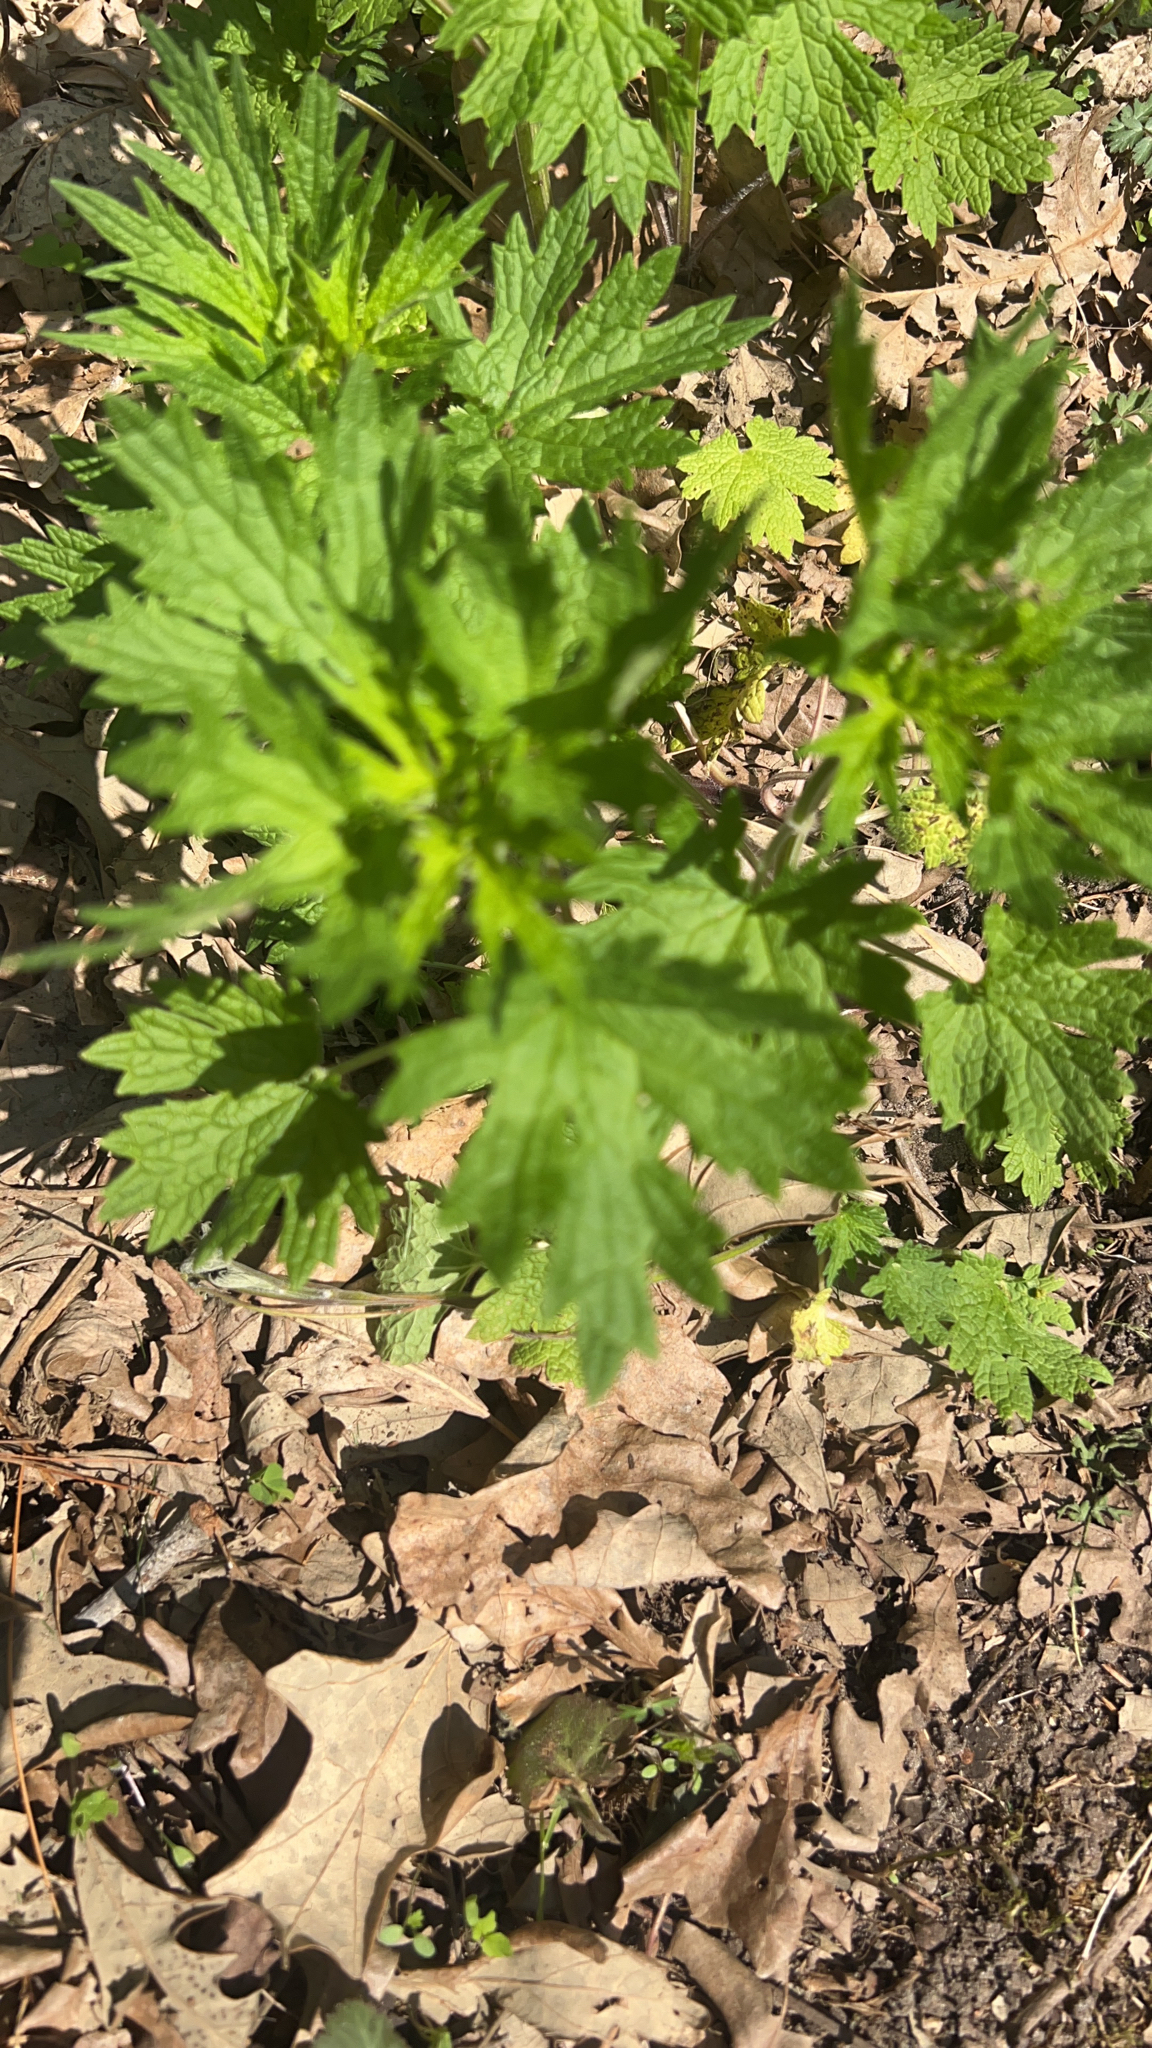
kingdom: Plantae
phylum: Tracheophyta
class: Magnoliopsida
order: Lamiales
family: Lamiaceae
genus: Leonurus
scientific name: Leonurus cardiaca
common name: Motherwort
